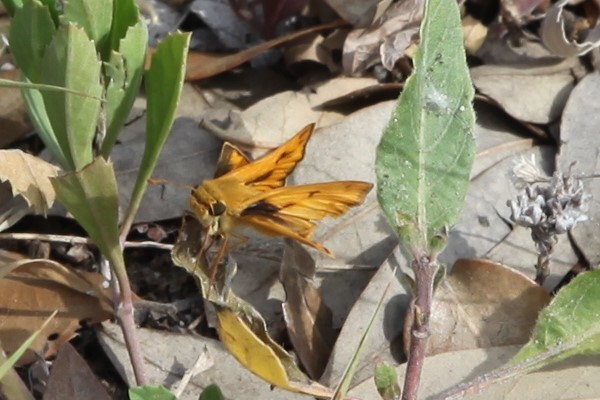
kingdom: Animalia
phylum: Arthropoda
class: Insecta
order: Lepidoptera
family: Hesperiidae
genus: Hylephila
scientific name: Hylephila phyleus
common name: Fiery skipper
